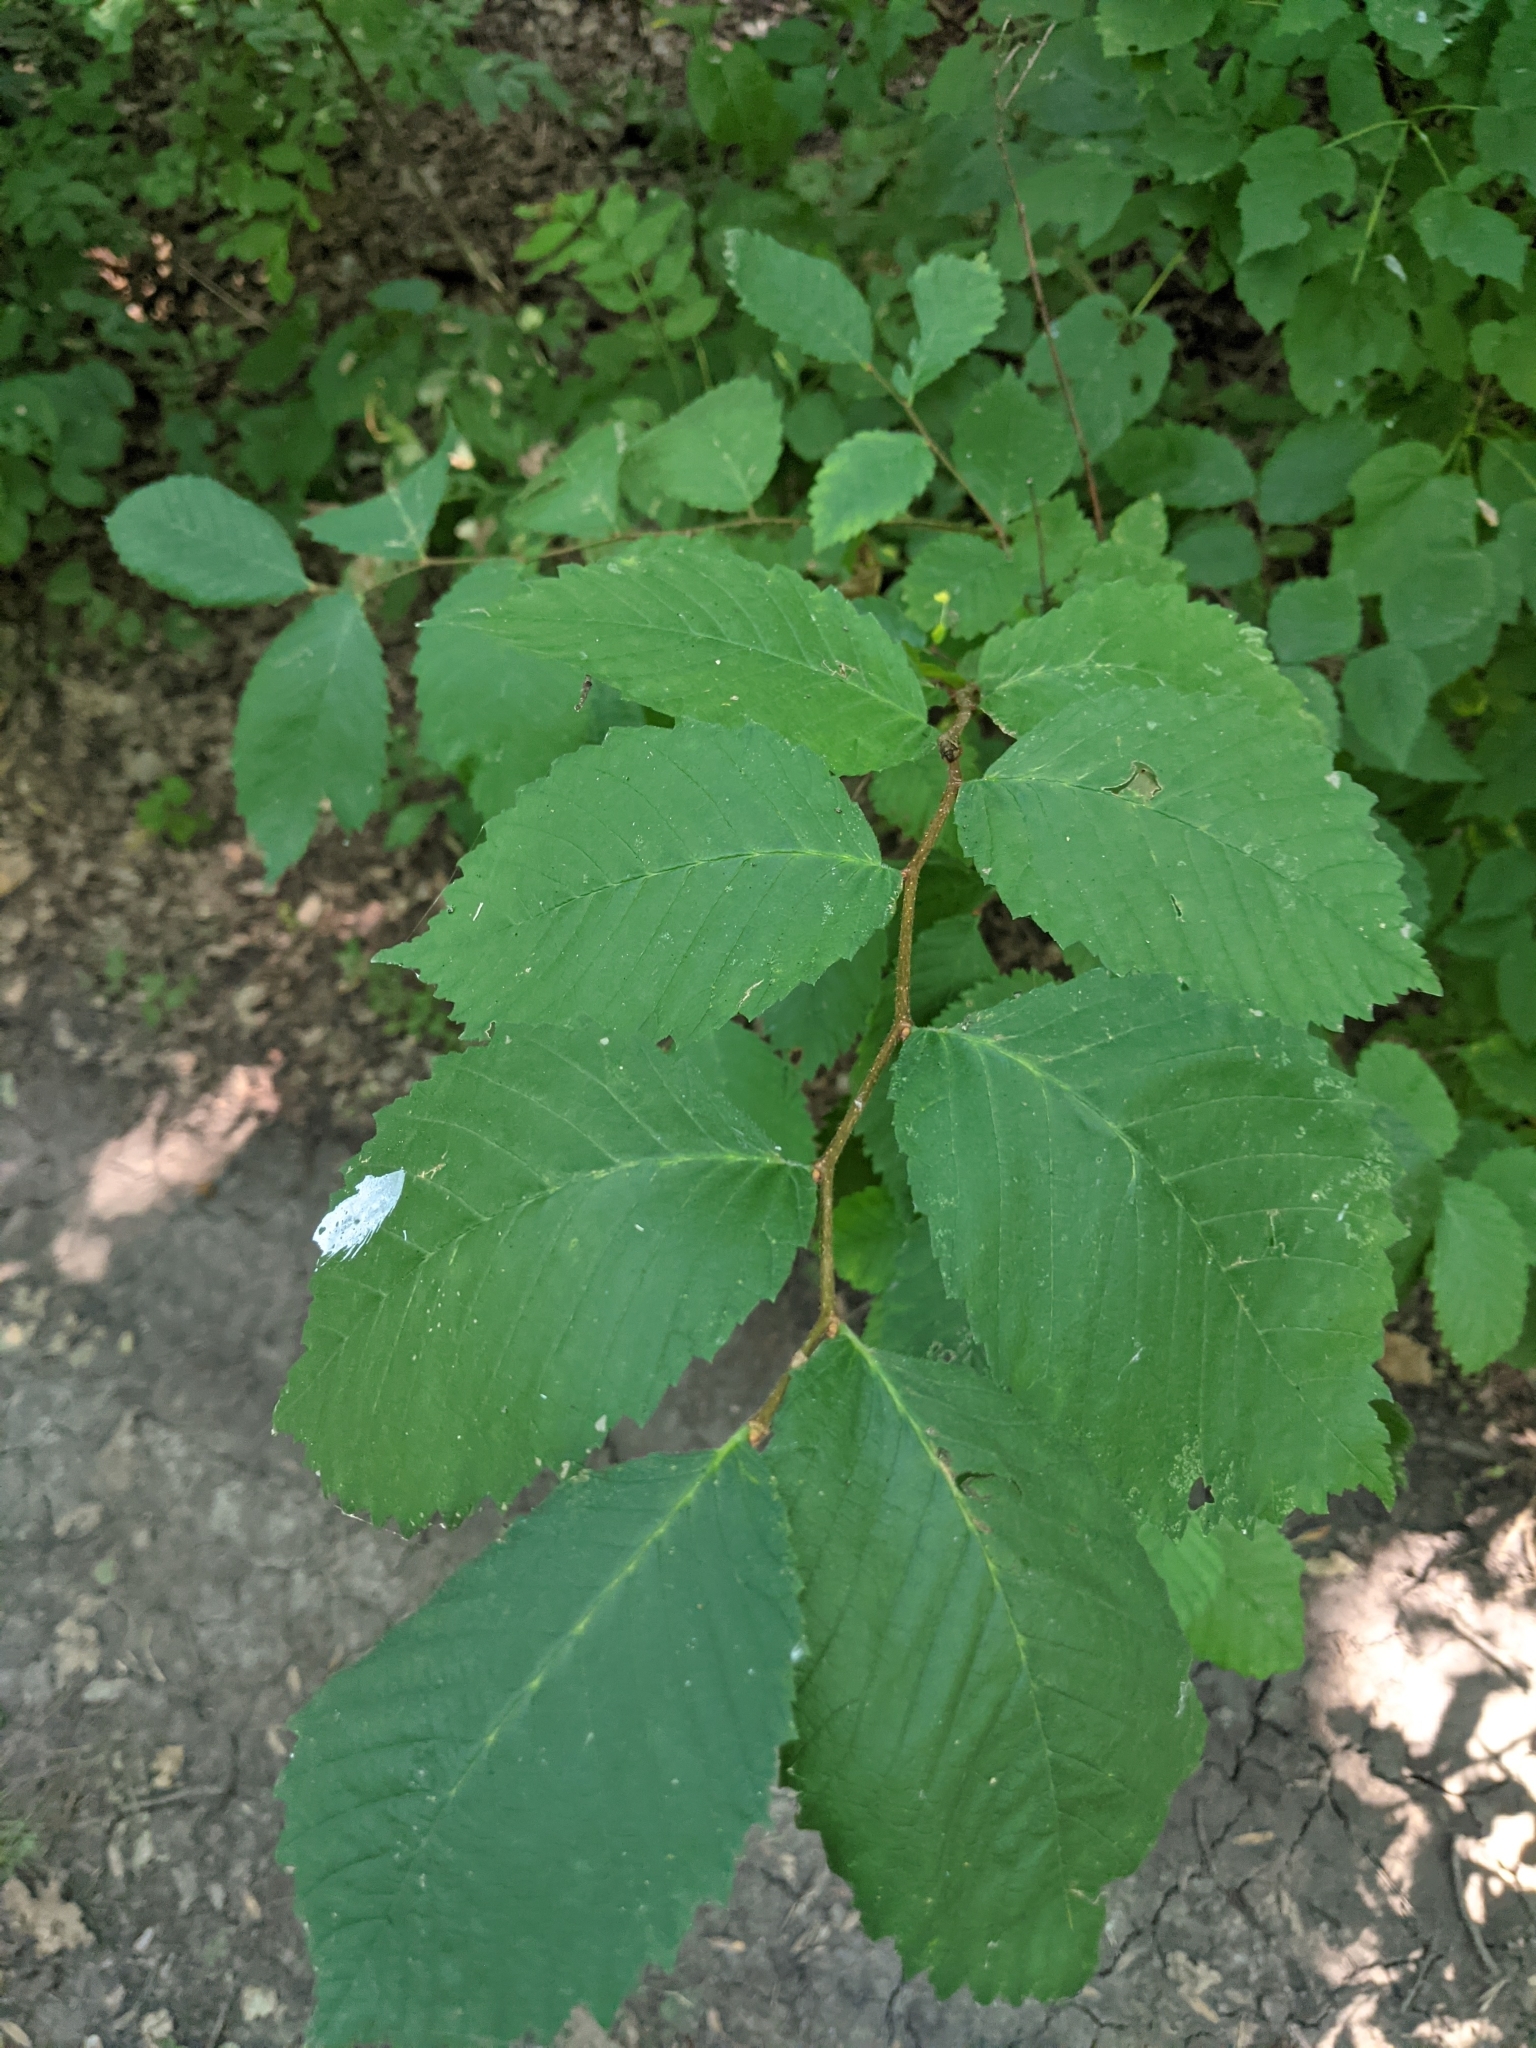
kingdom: Plantae
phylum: Tracheophyta
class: Magnoliopsida
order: Rosales
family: Ulmaceae
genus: Ulmus
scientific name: Ulmus glabra
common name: Wych elm
